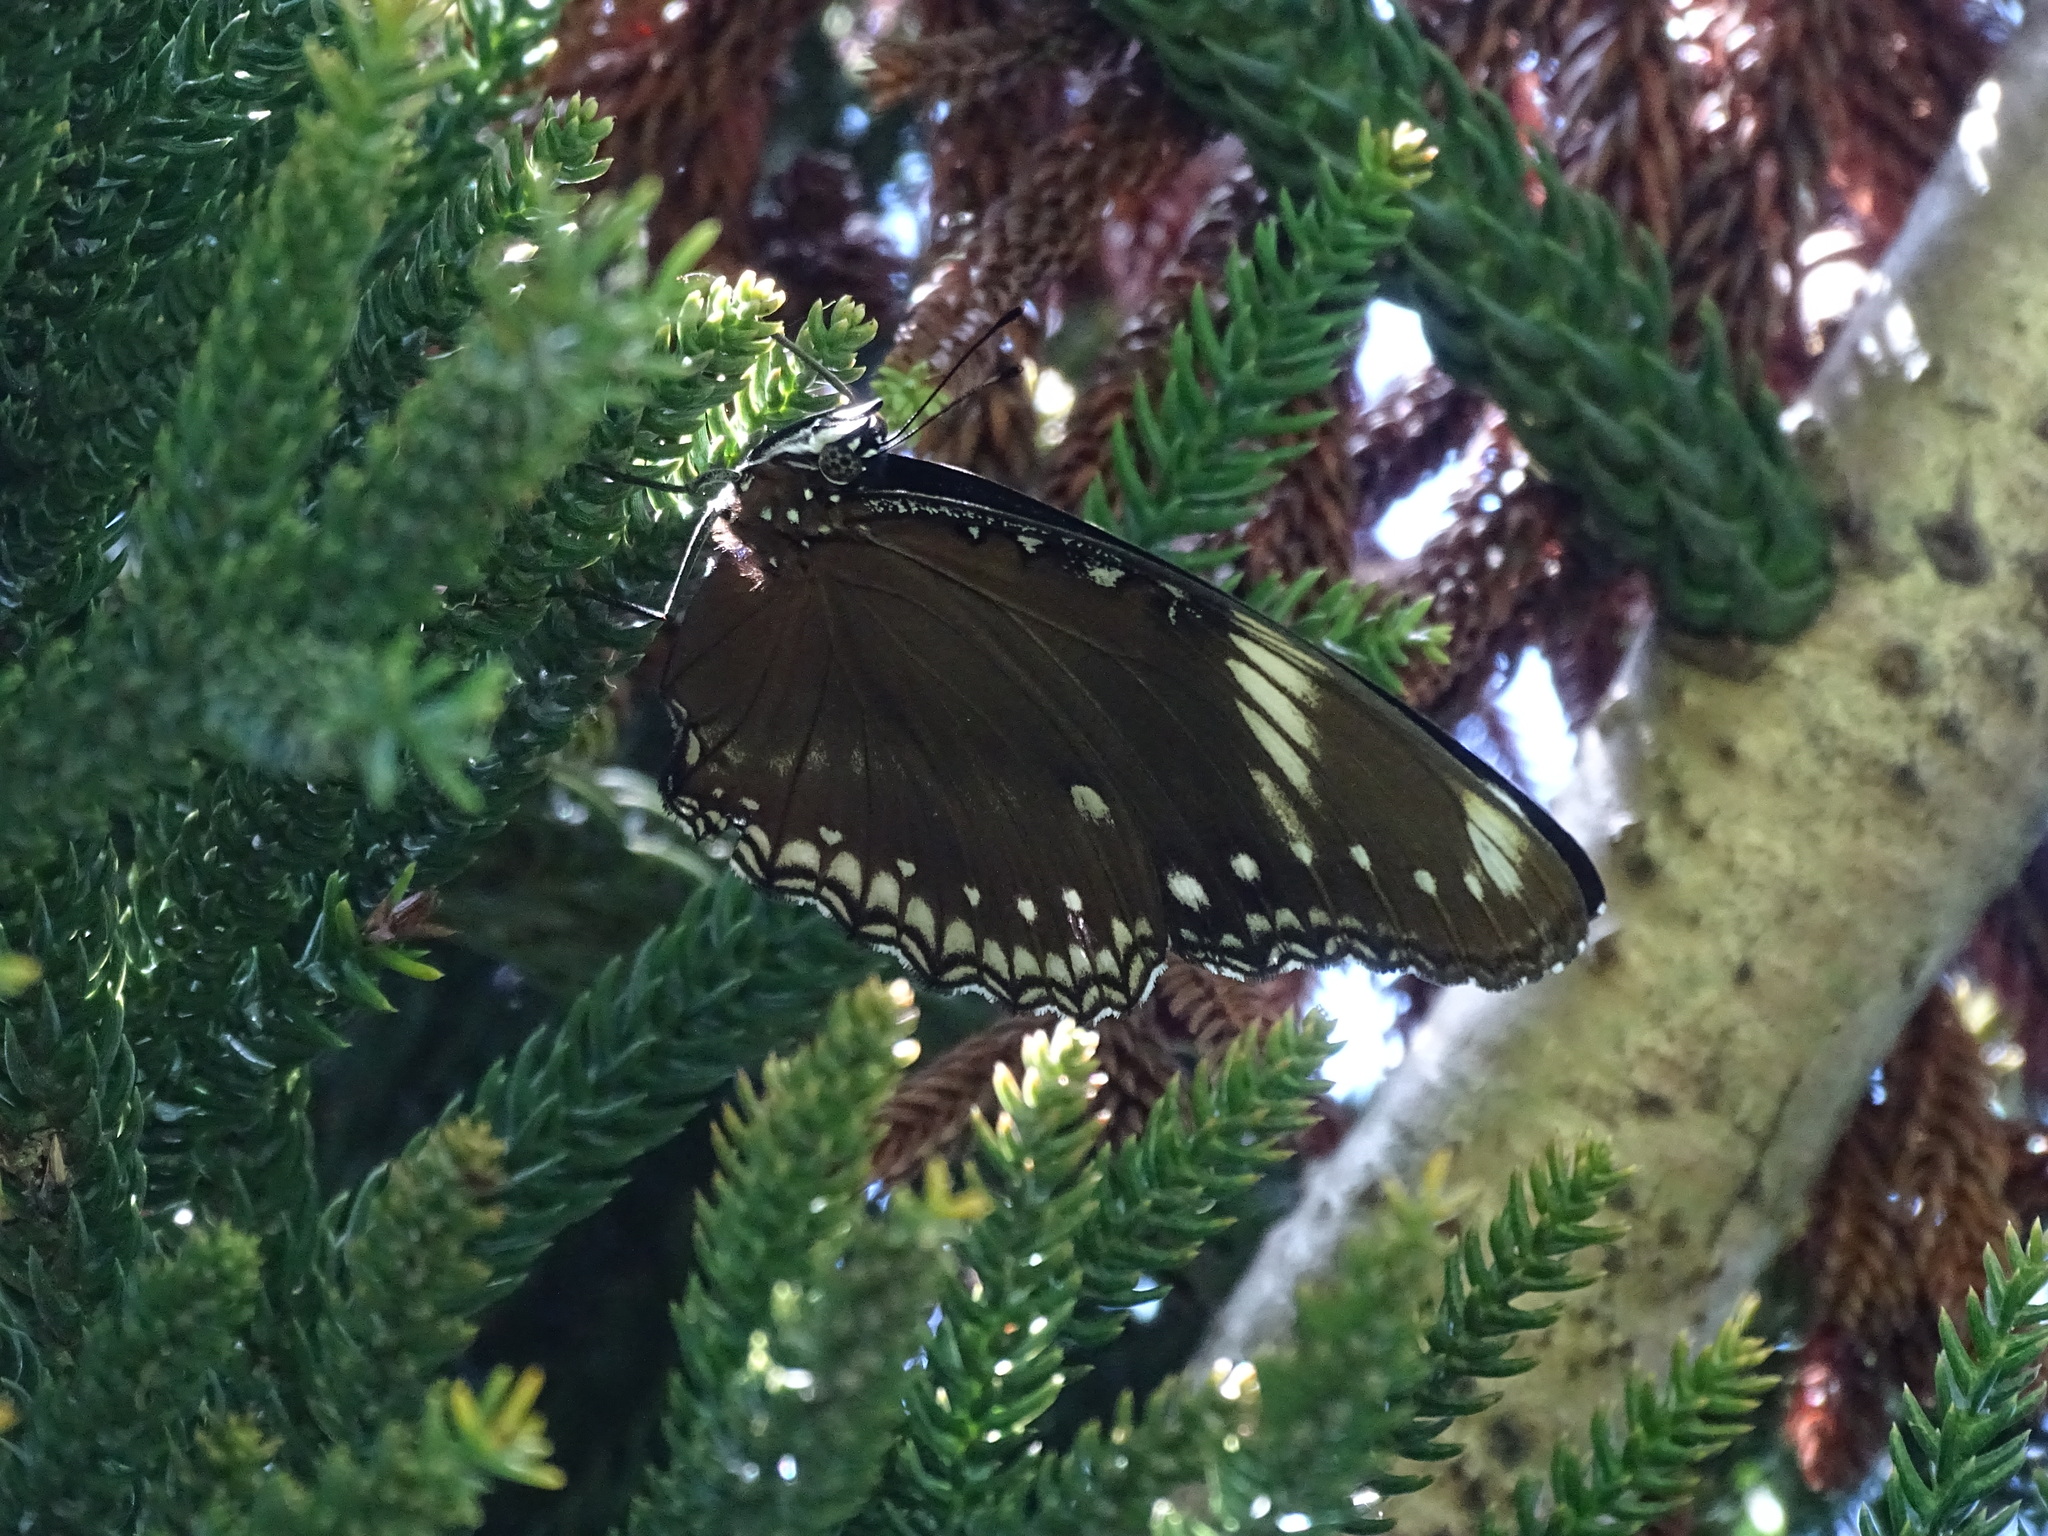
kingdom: Animalia
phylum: Arthropoda
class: Insecta
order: Lepidoptera
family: Nymphalidae
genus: Hypolimnas
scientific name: Hypolimnas bolina
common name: Great eggfly
